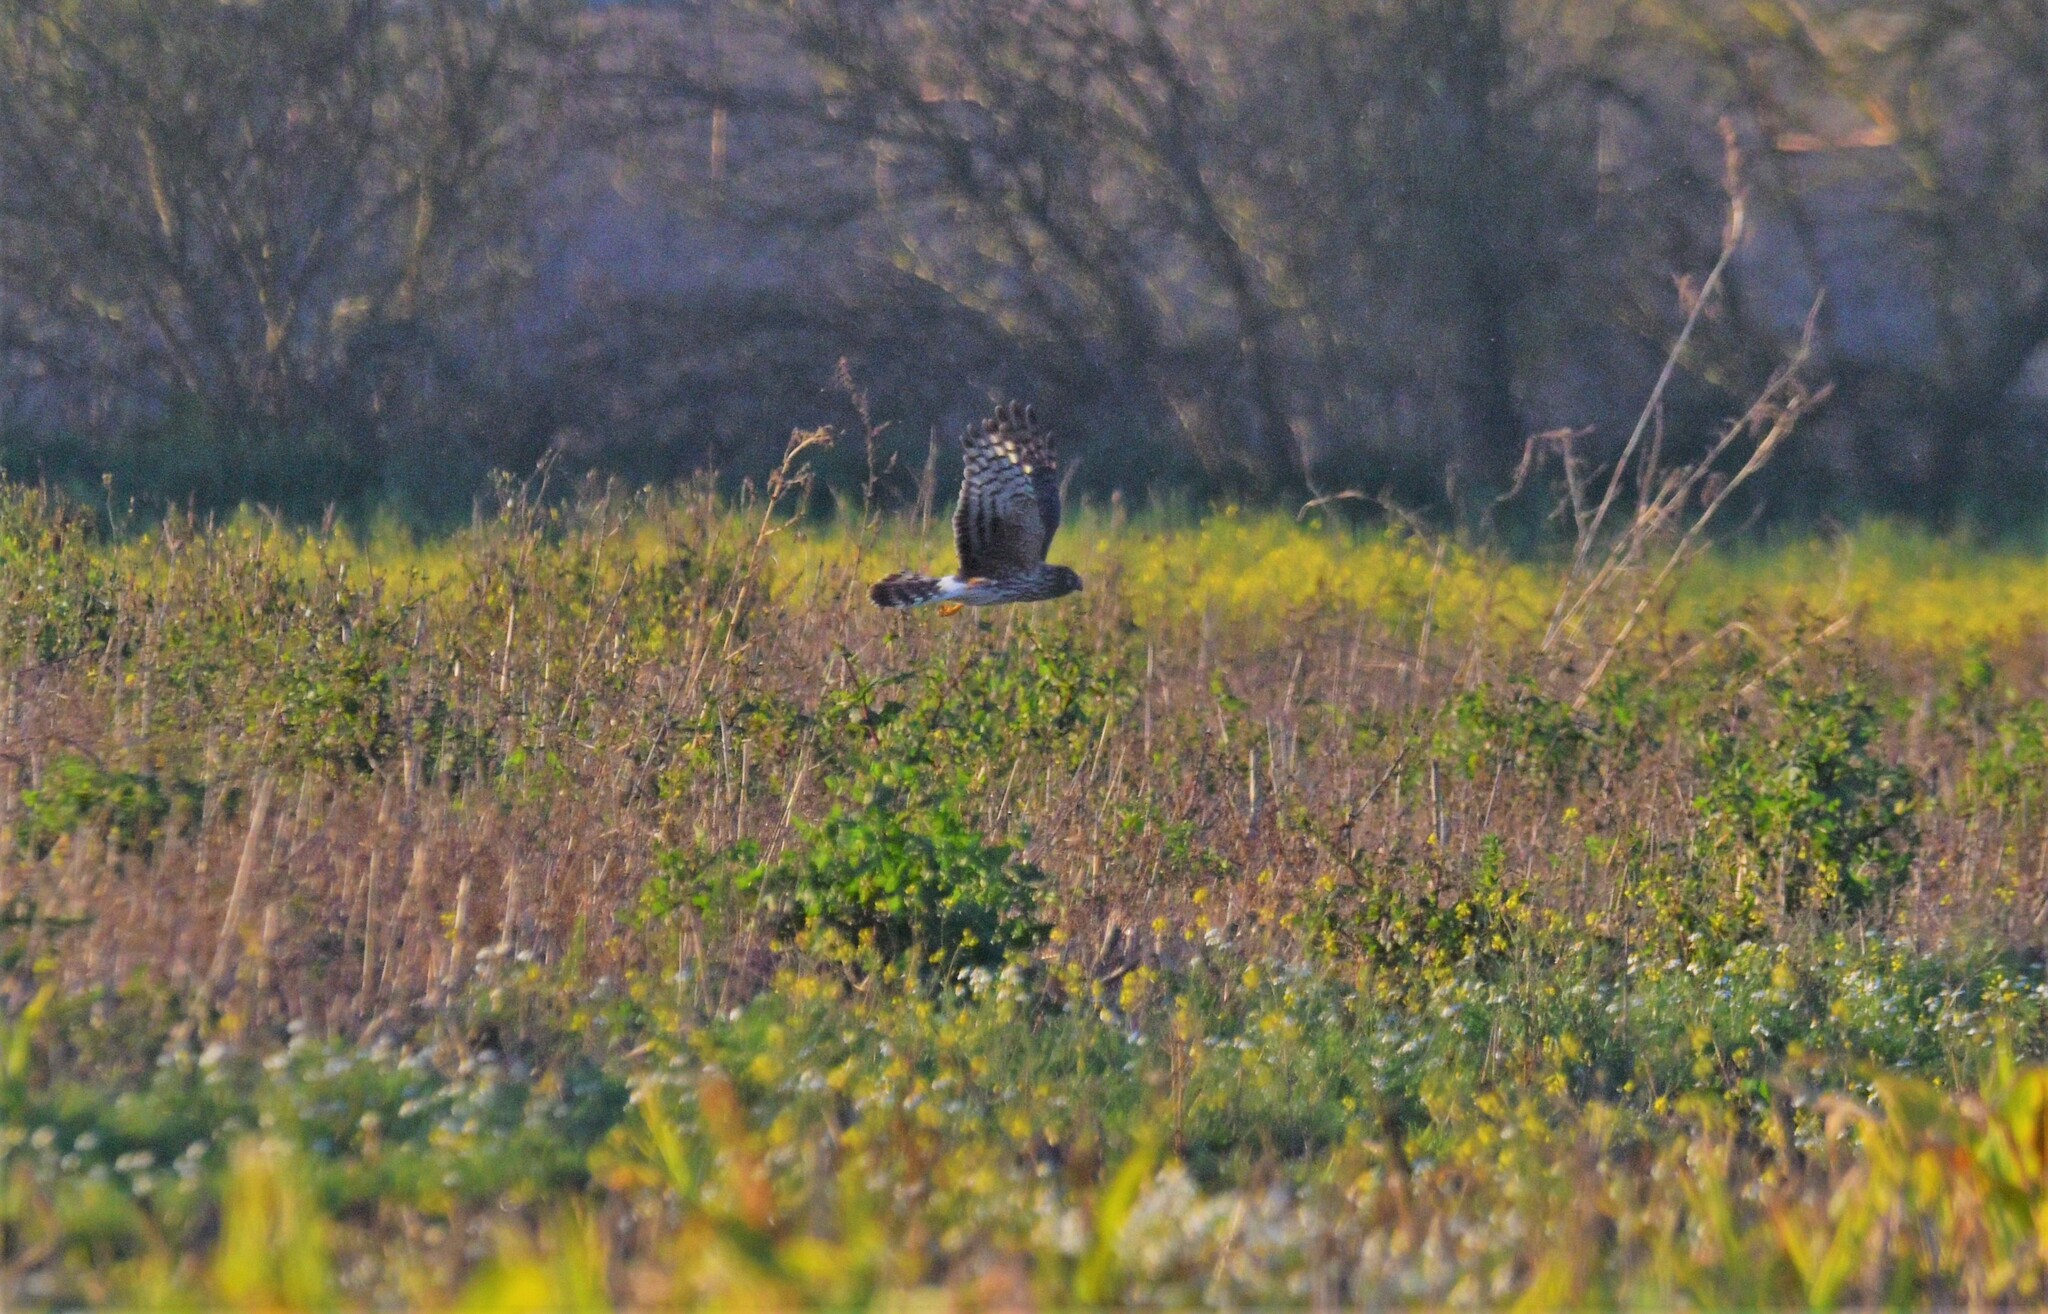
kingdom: Animalia
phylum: Chordata
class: Aves
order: Accipitriformes
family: Accipitridae
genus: Circus
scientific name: Circus cyaneus
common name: Hen harrier
